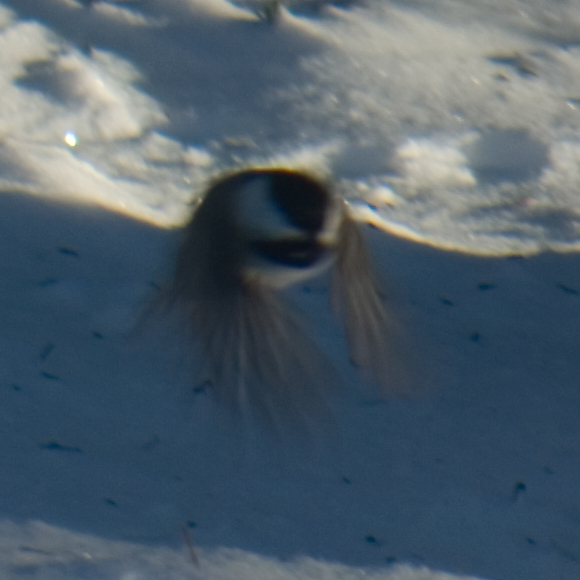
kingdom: Animalia
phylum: Chordata
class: Aves
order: Passeriformes
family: Paridae
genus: Poecile
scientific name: Poecile atricapillus
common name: Black-capped chickadee
